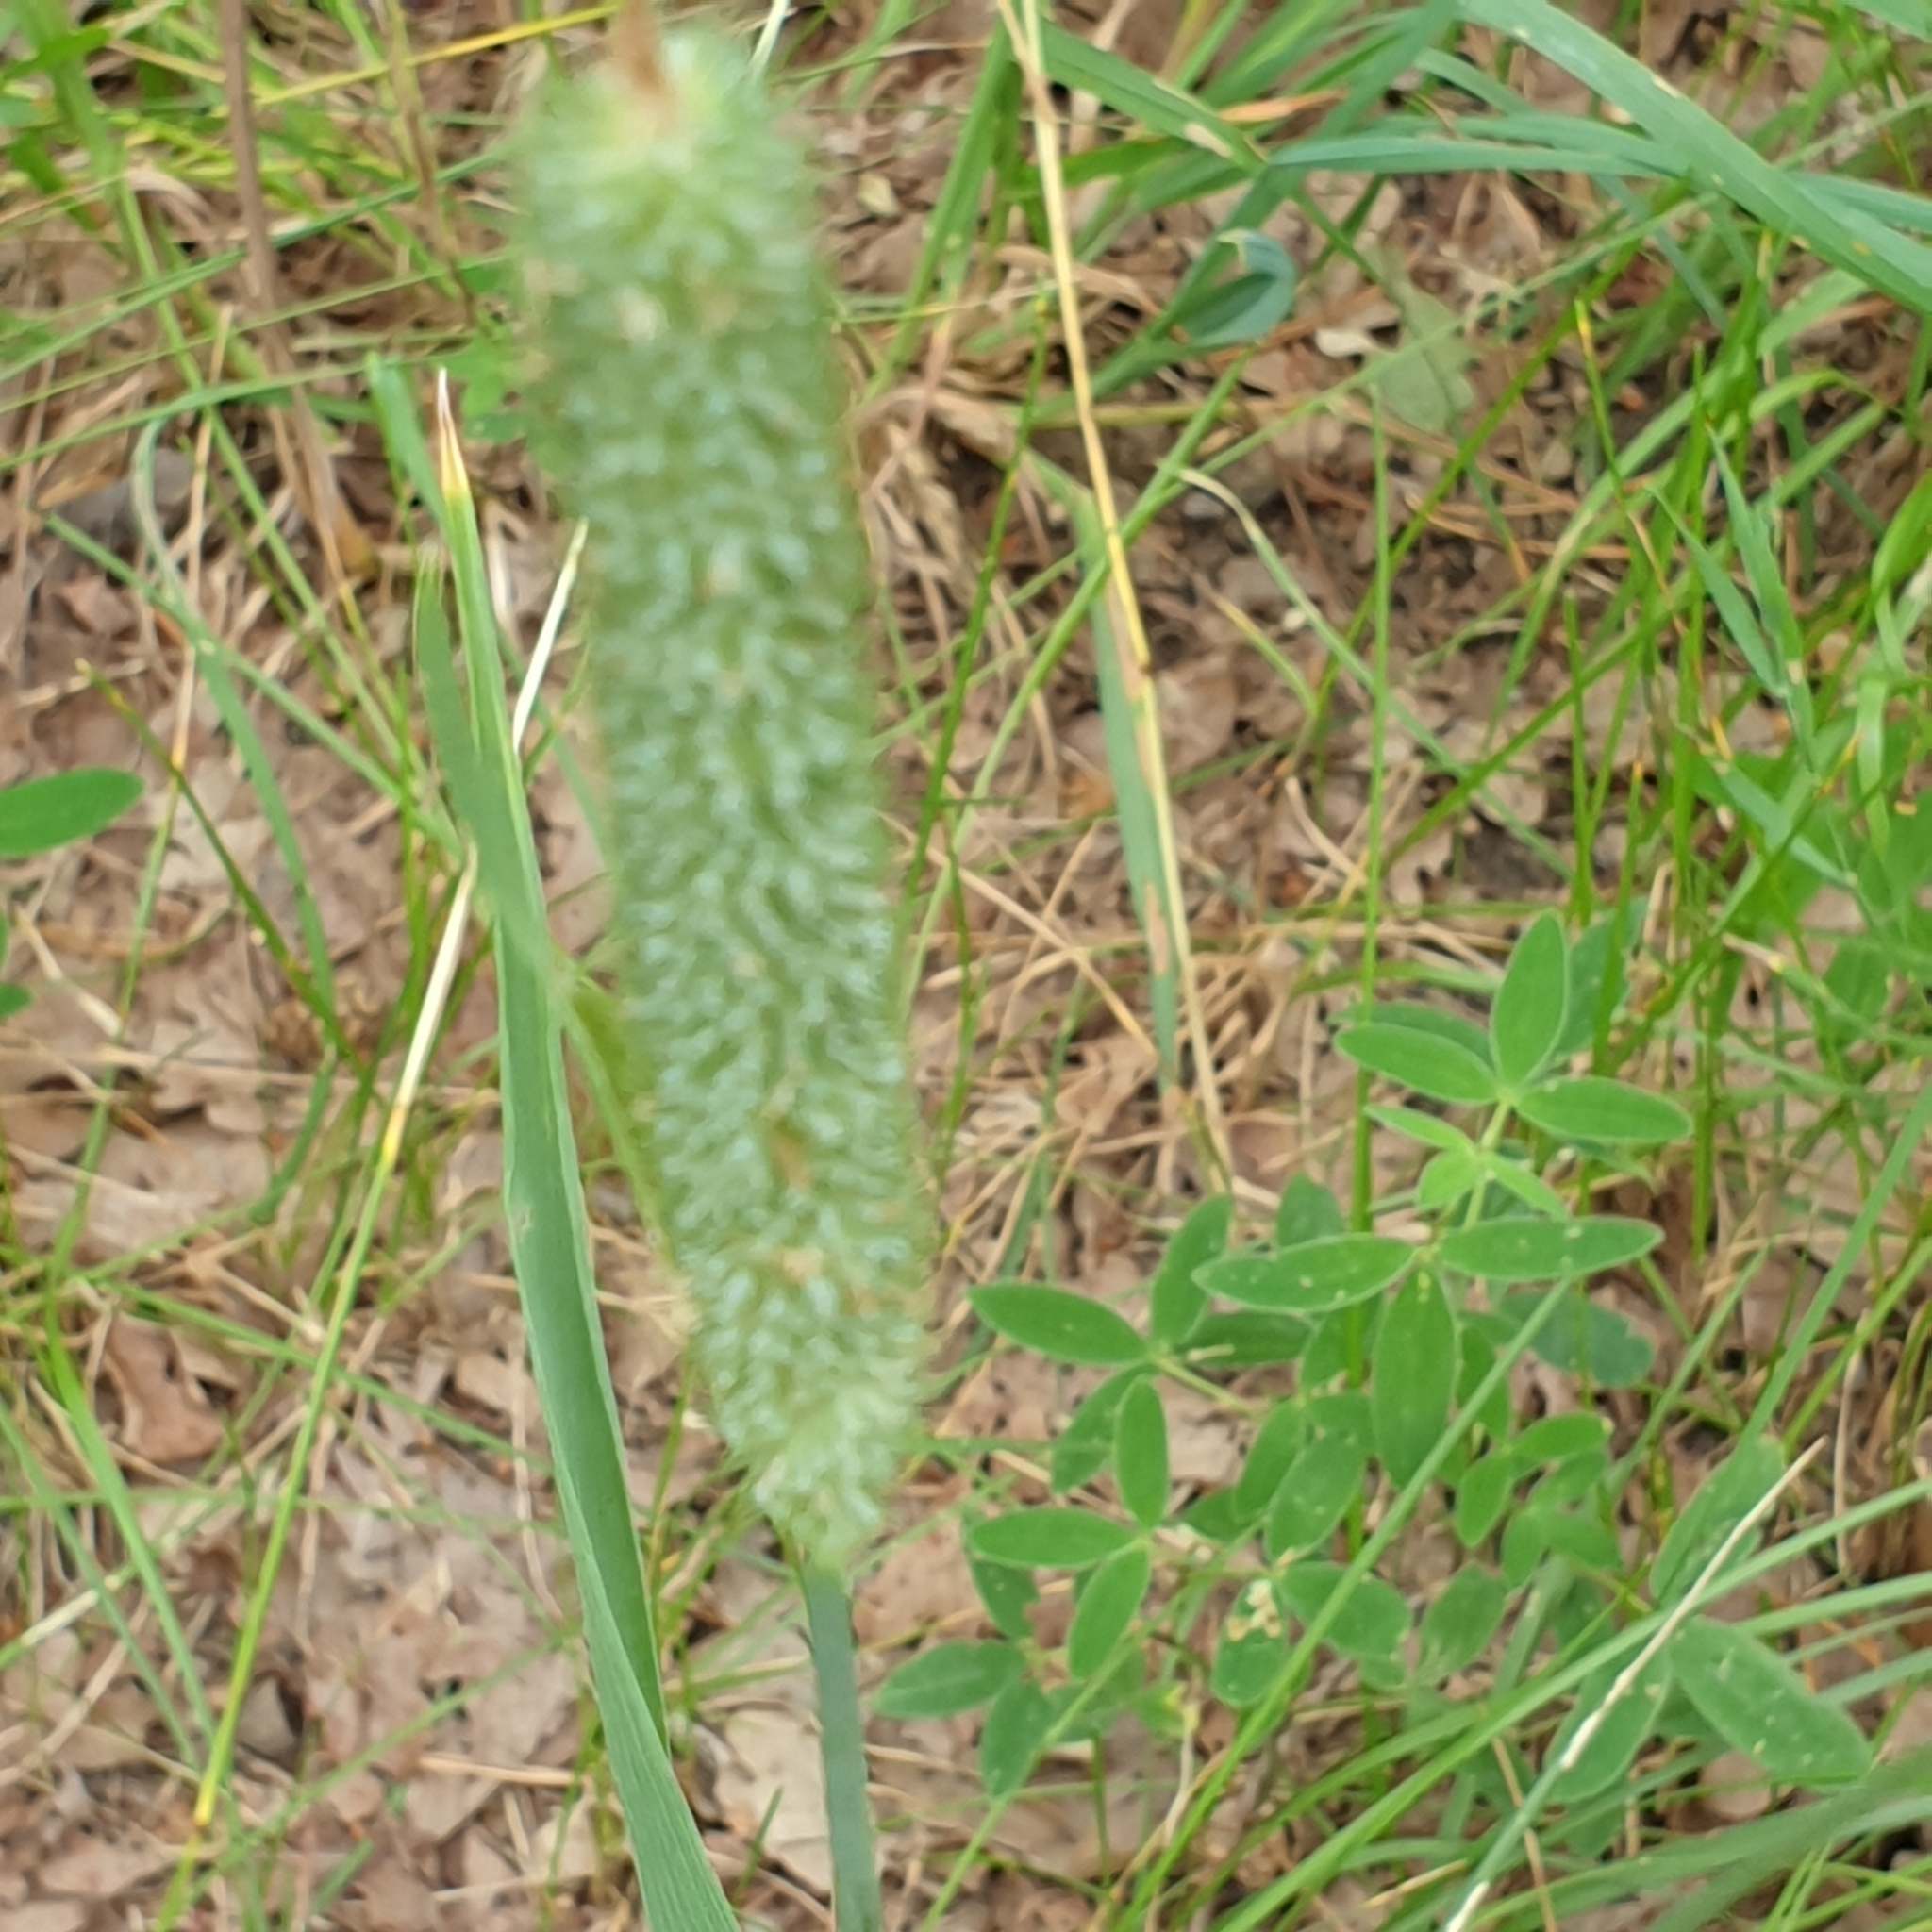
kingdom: Plantae
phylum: Tracheophyta
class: Liliopsida
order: Poales
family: Poaceae
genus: Phleum
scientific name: Phleum pratense
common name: Timothy grass
